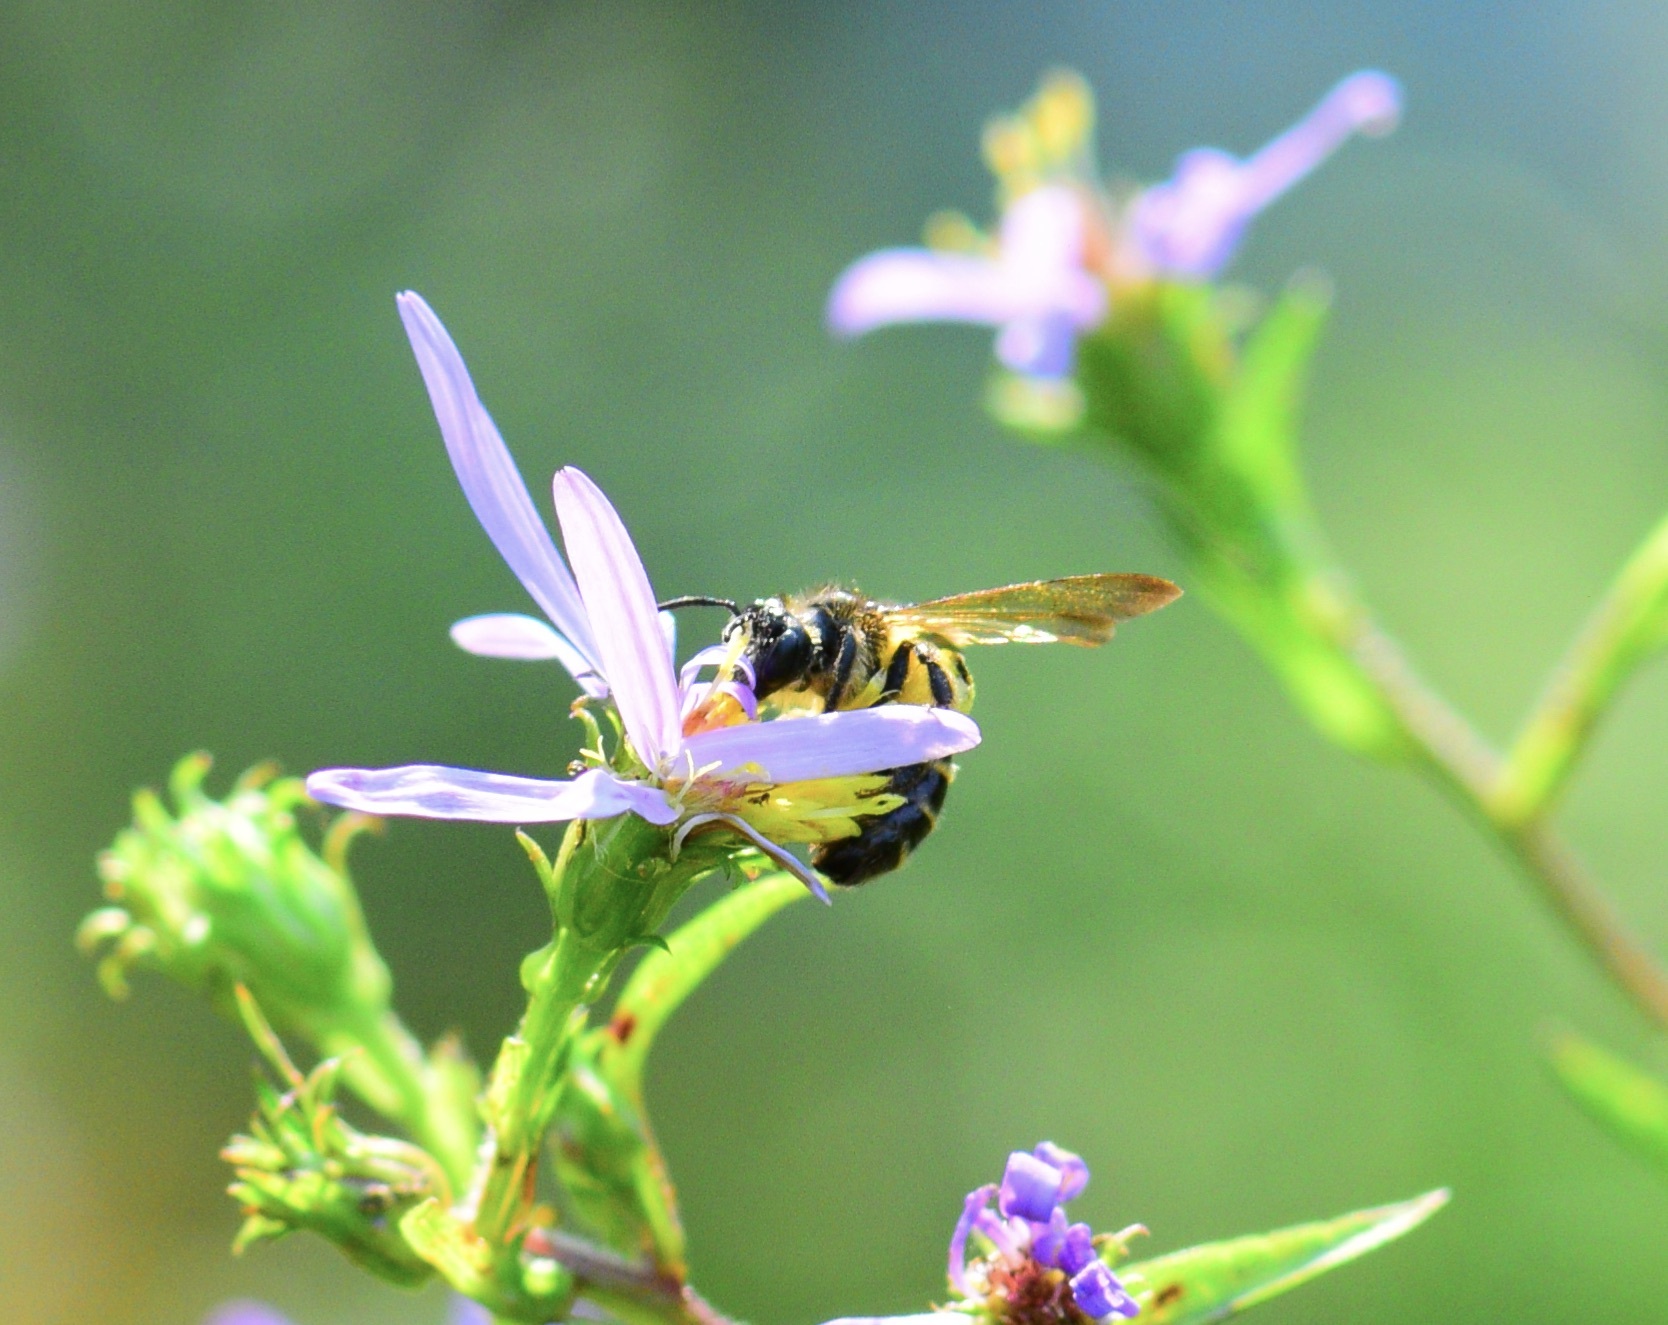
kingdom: Animalia
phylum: Arthropoda
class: Insecta
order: Hymenoptera
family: Andrenidae
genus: Andrena
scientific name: Andrena robervalensis
